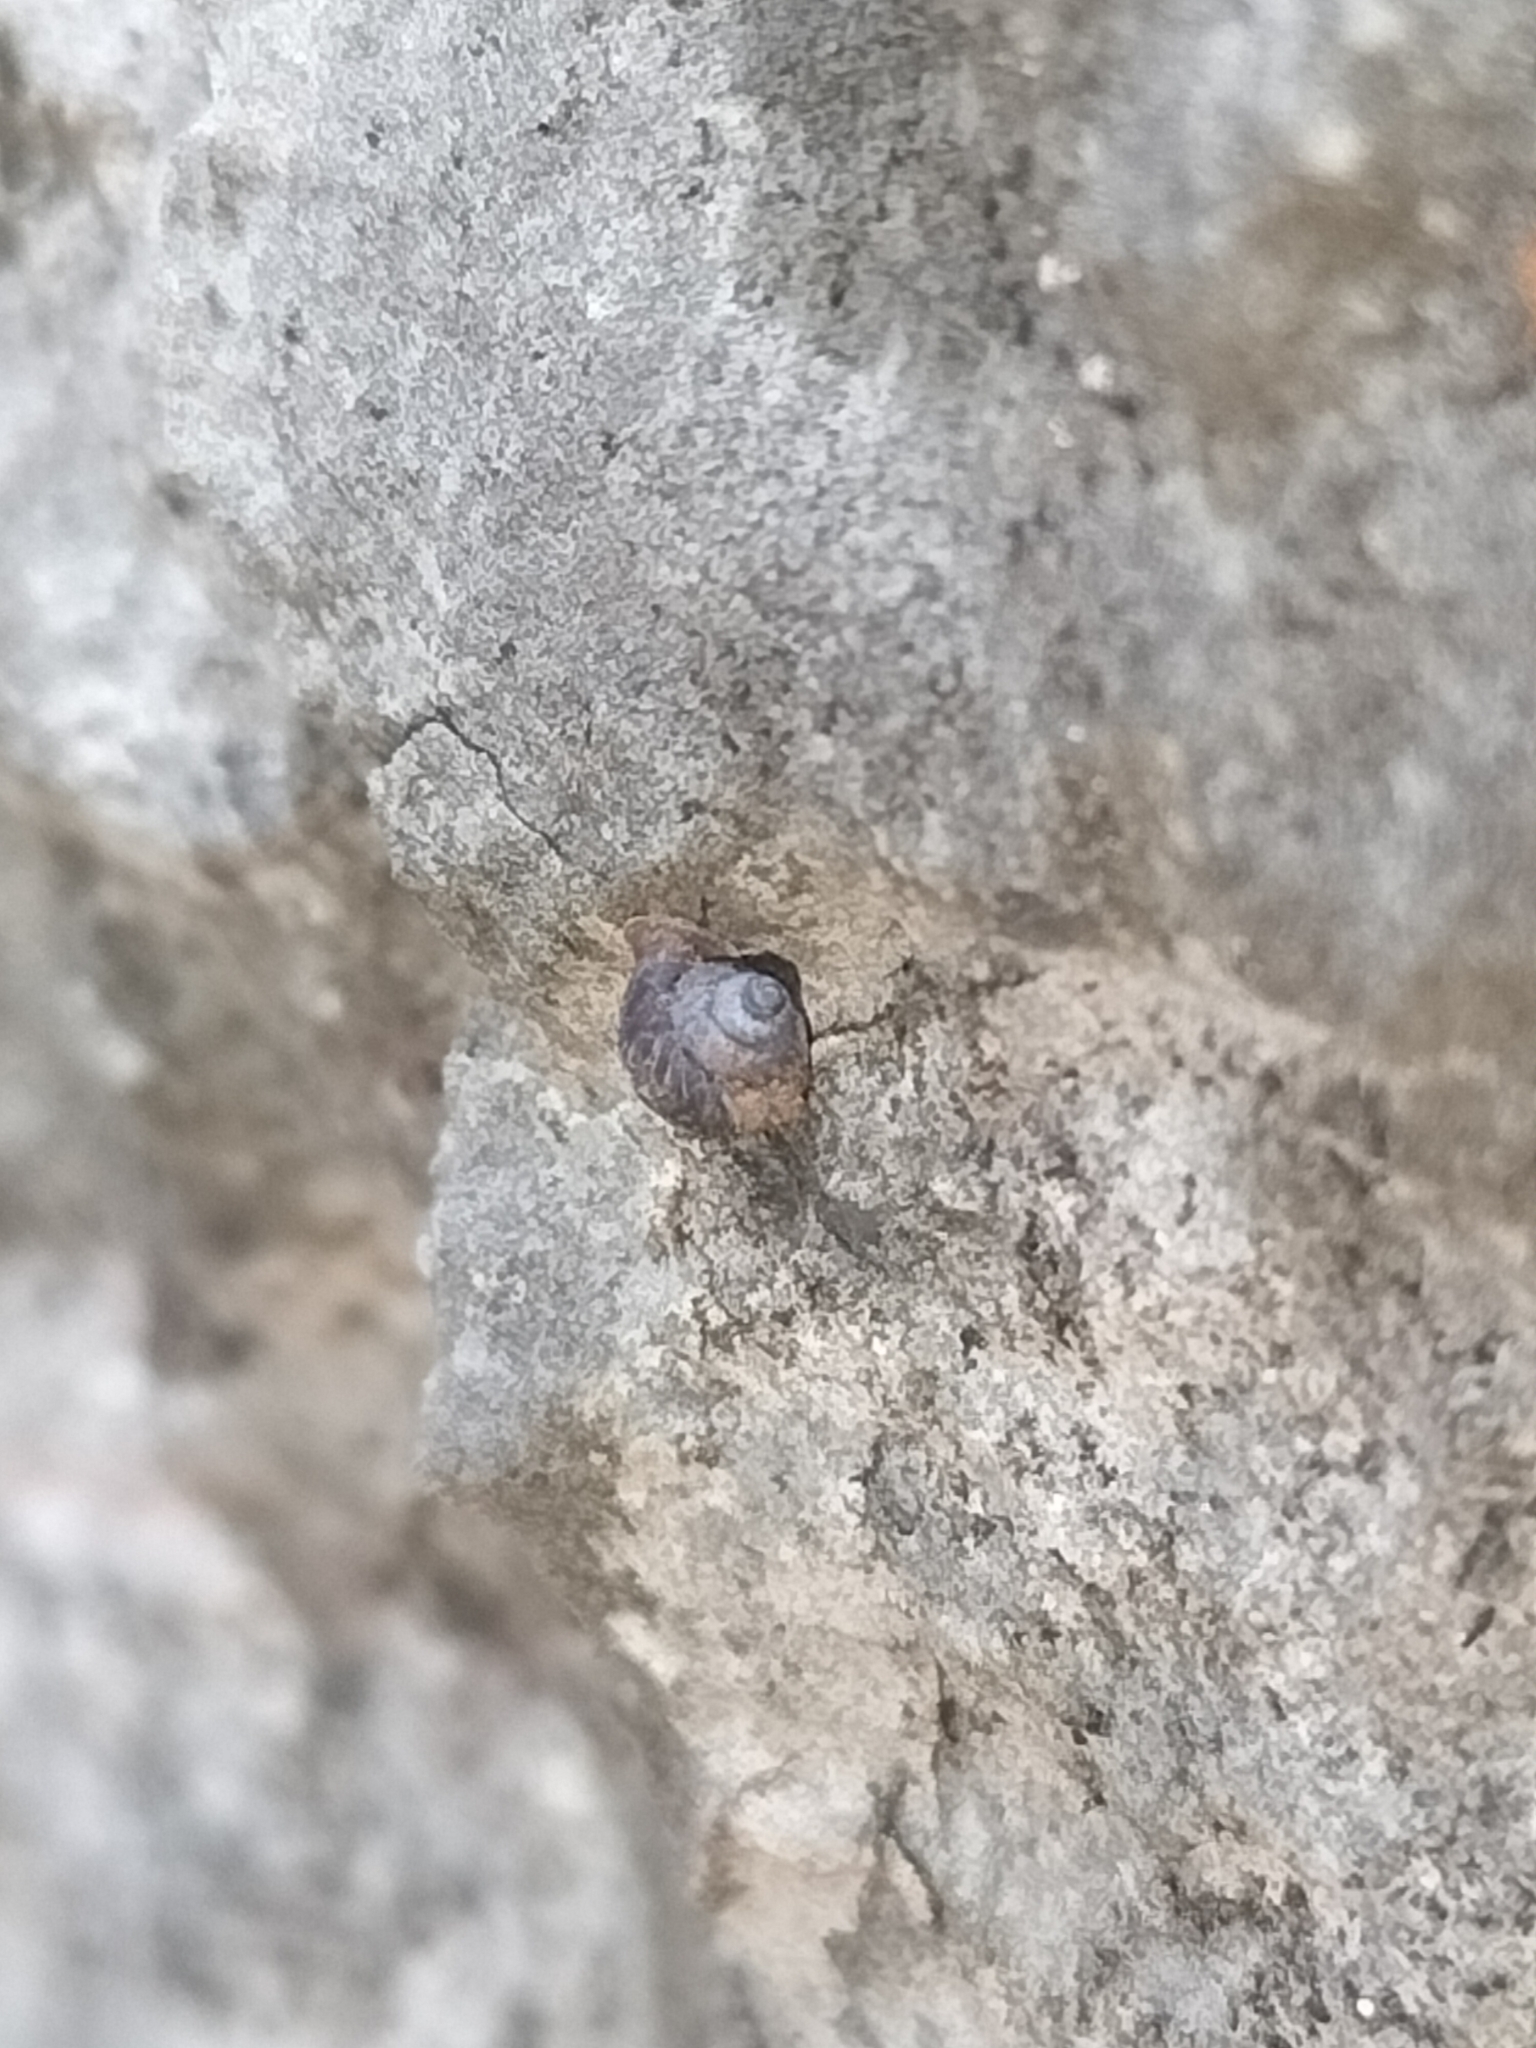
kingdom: Animalia
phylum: Mollusca
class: Gastropoda
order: Stylommatophora
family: Gastrocoptidae
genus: Gyliotrachela
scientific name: Gyliotrachela australis
